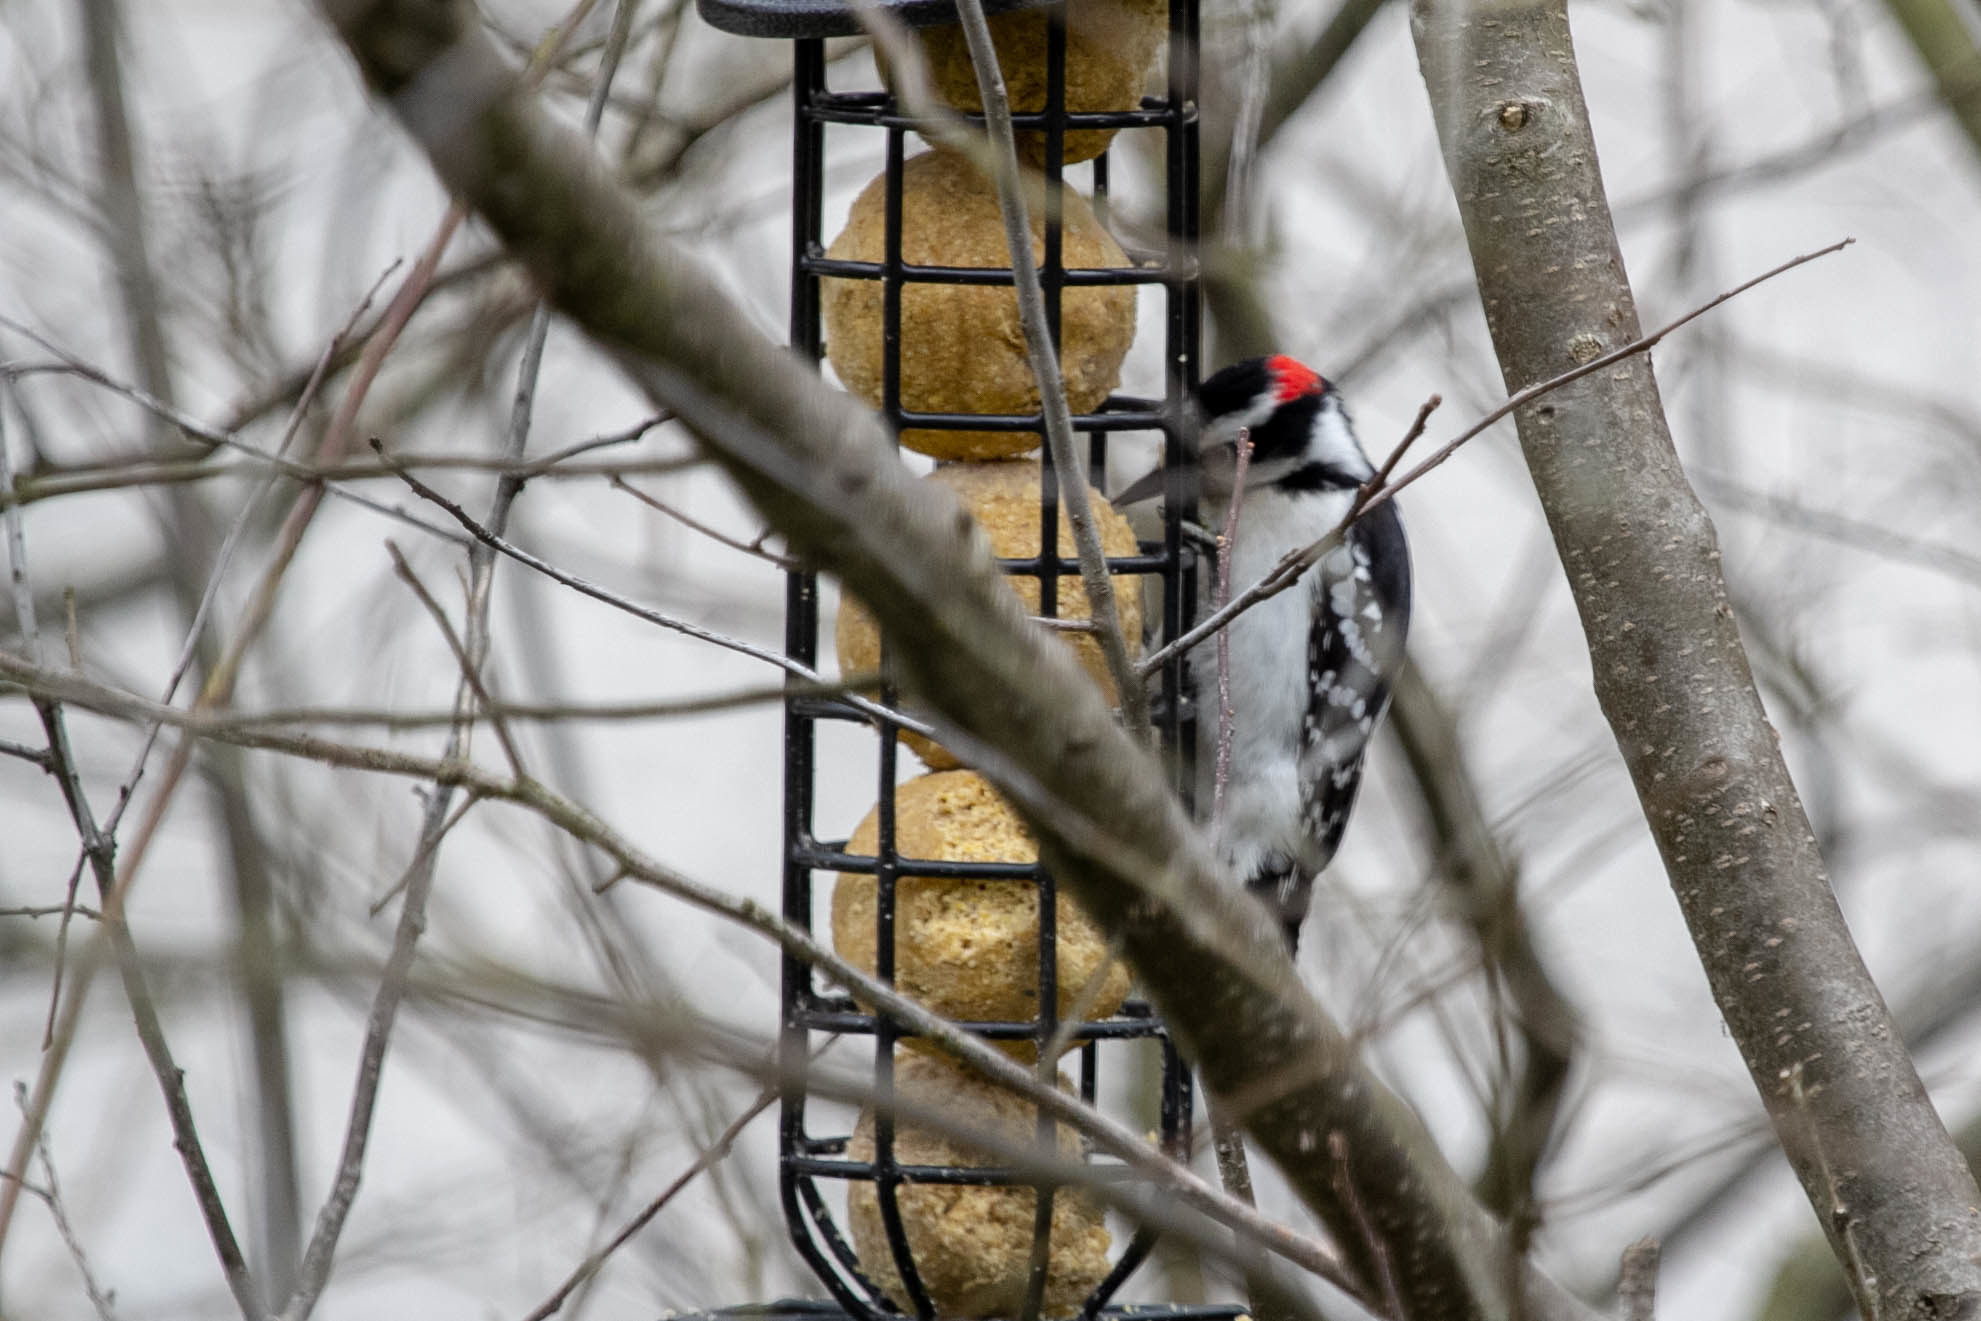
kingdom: Animalia
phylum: Chordata
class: Aves
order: Piciformes
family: Picidae
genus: Leuconotopicus
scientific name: Leuconotopicus villosus
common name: Hairy woodpecker
